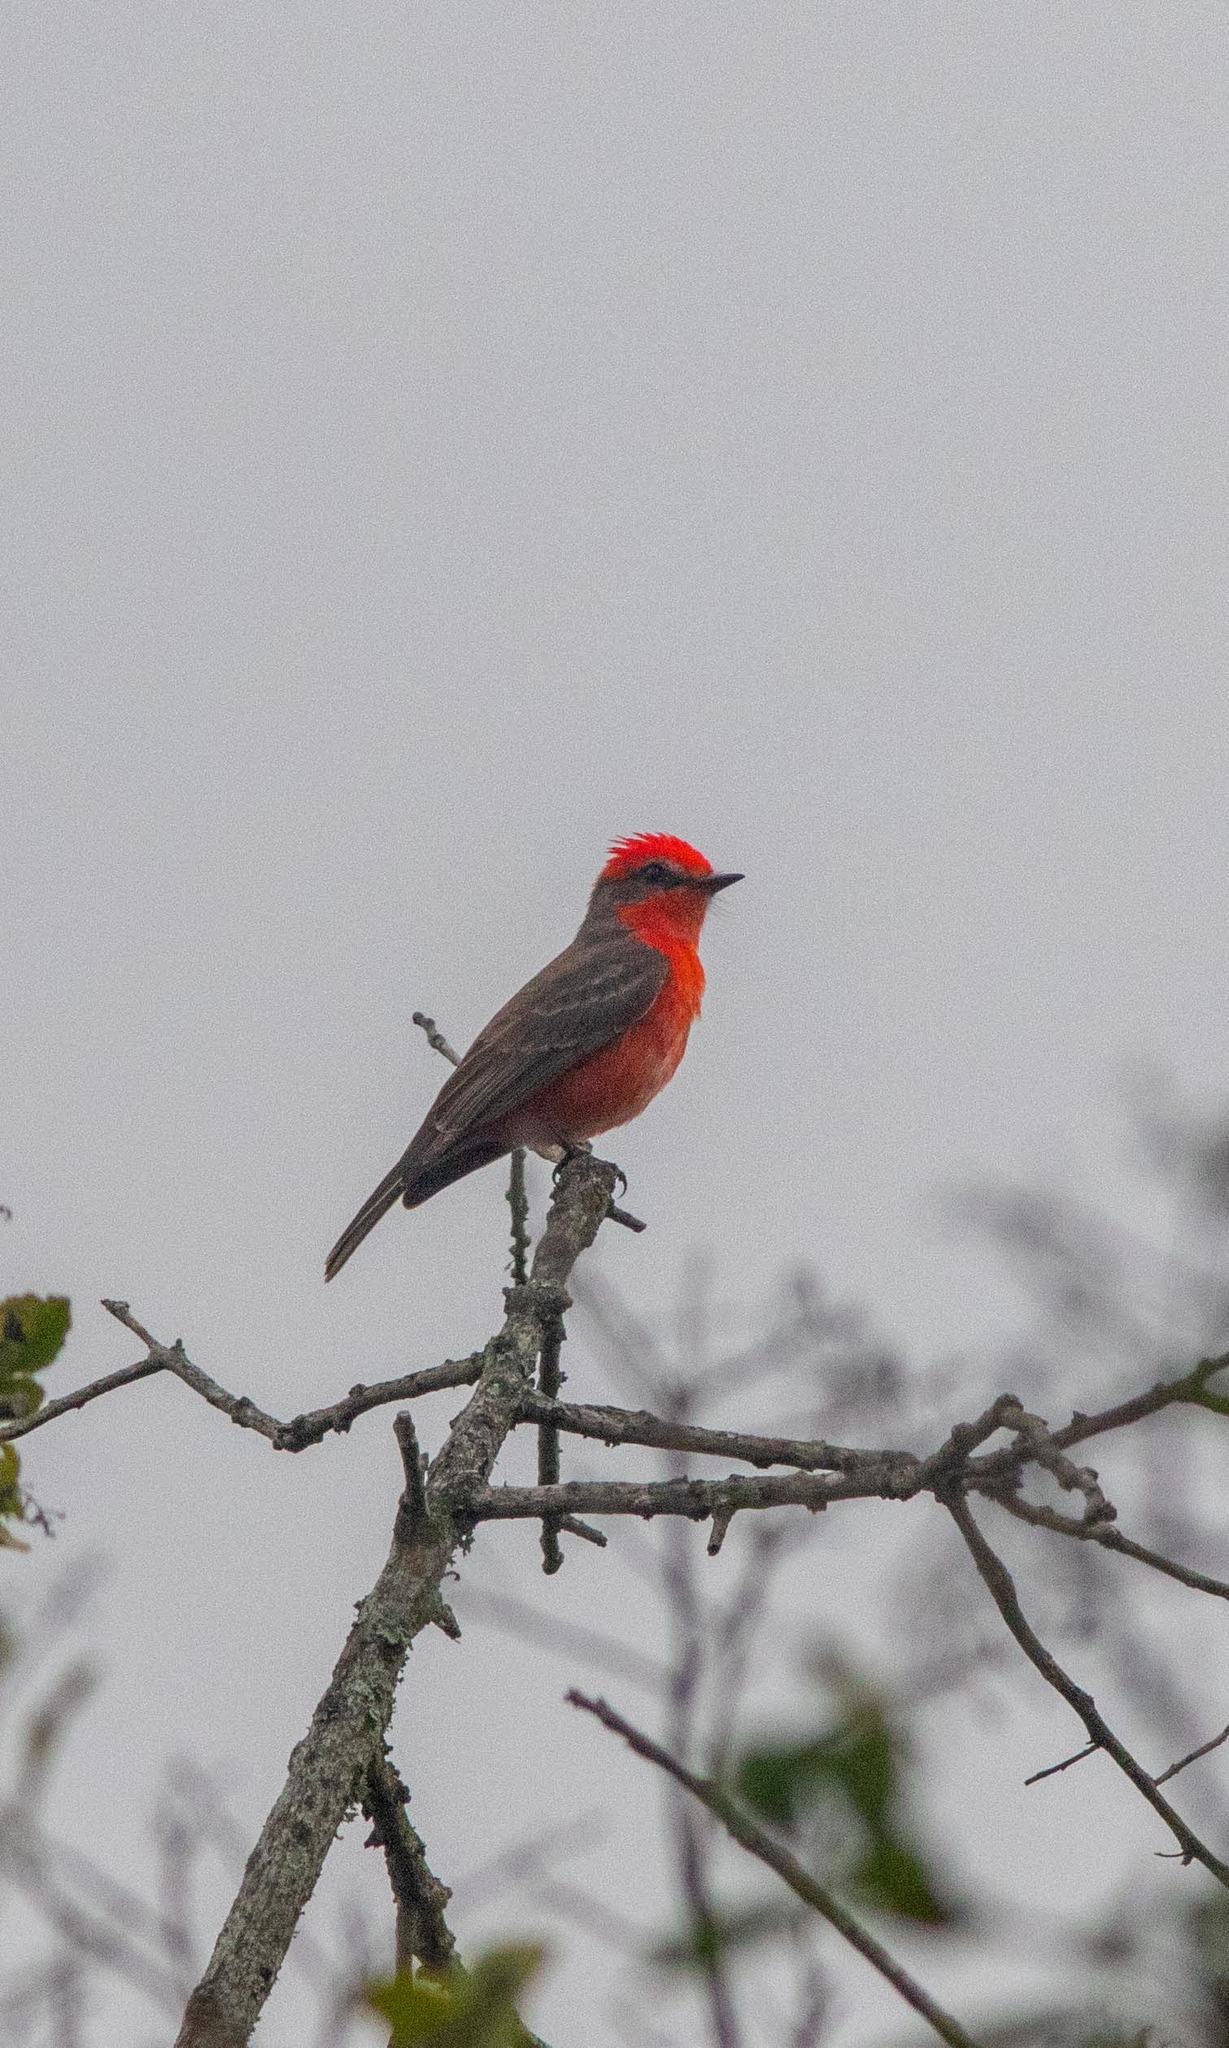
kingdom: Animalia
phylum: Chordata
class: Aves
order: Passeriformes
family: Tyrannidae
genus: Pyrocephalus
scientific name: Pyrocephalus rubinus
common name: Vermilion flycatcher
